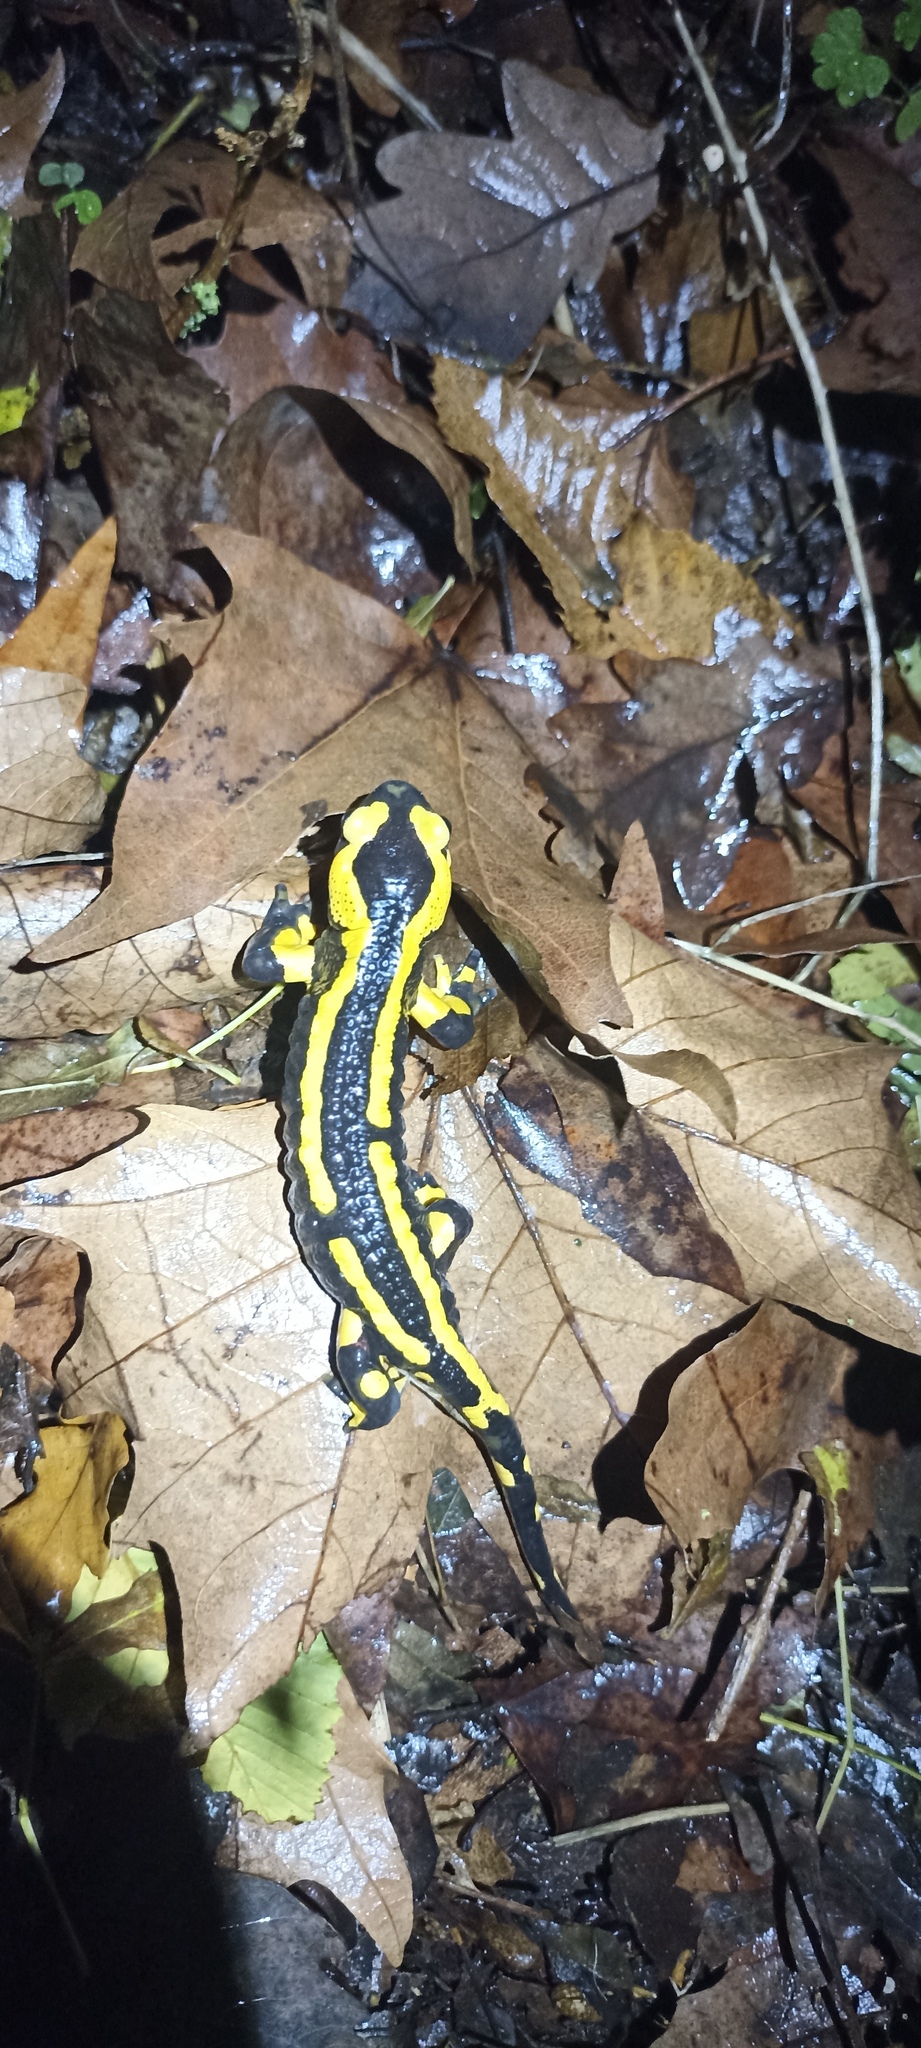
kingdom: Animalia
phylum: Chordata
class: Amphibia
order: Caudata
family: Salamandridae
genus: Salamandra
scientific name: Salamandra salamandra
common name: Fire salamander
